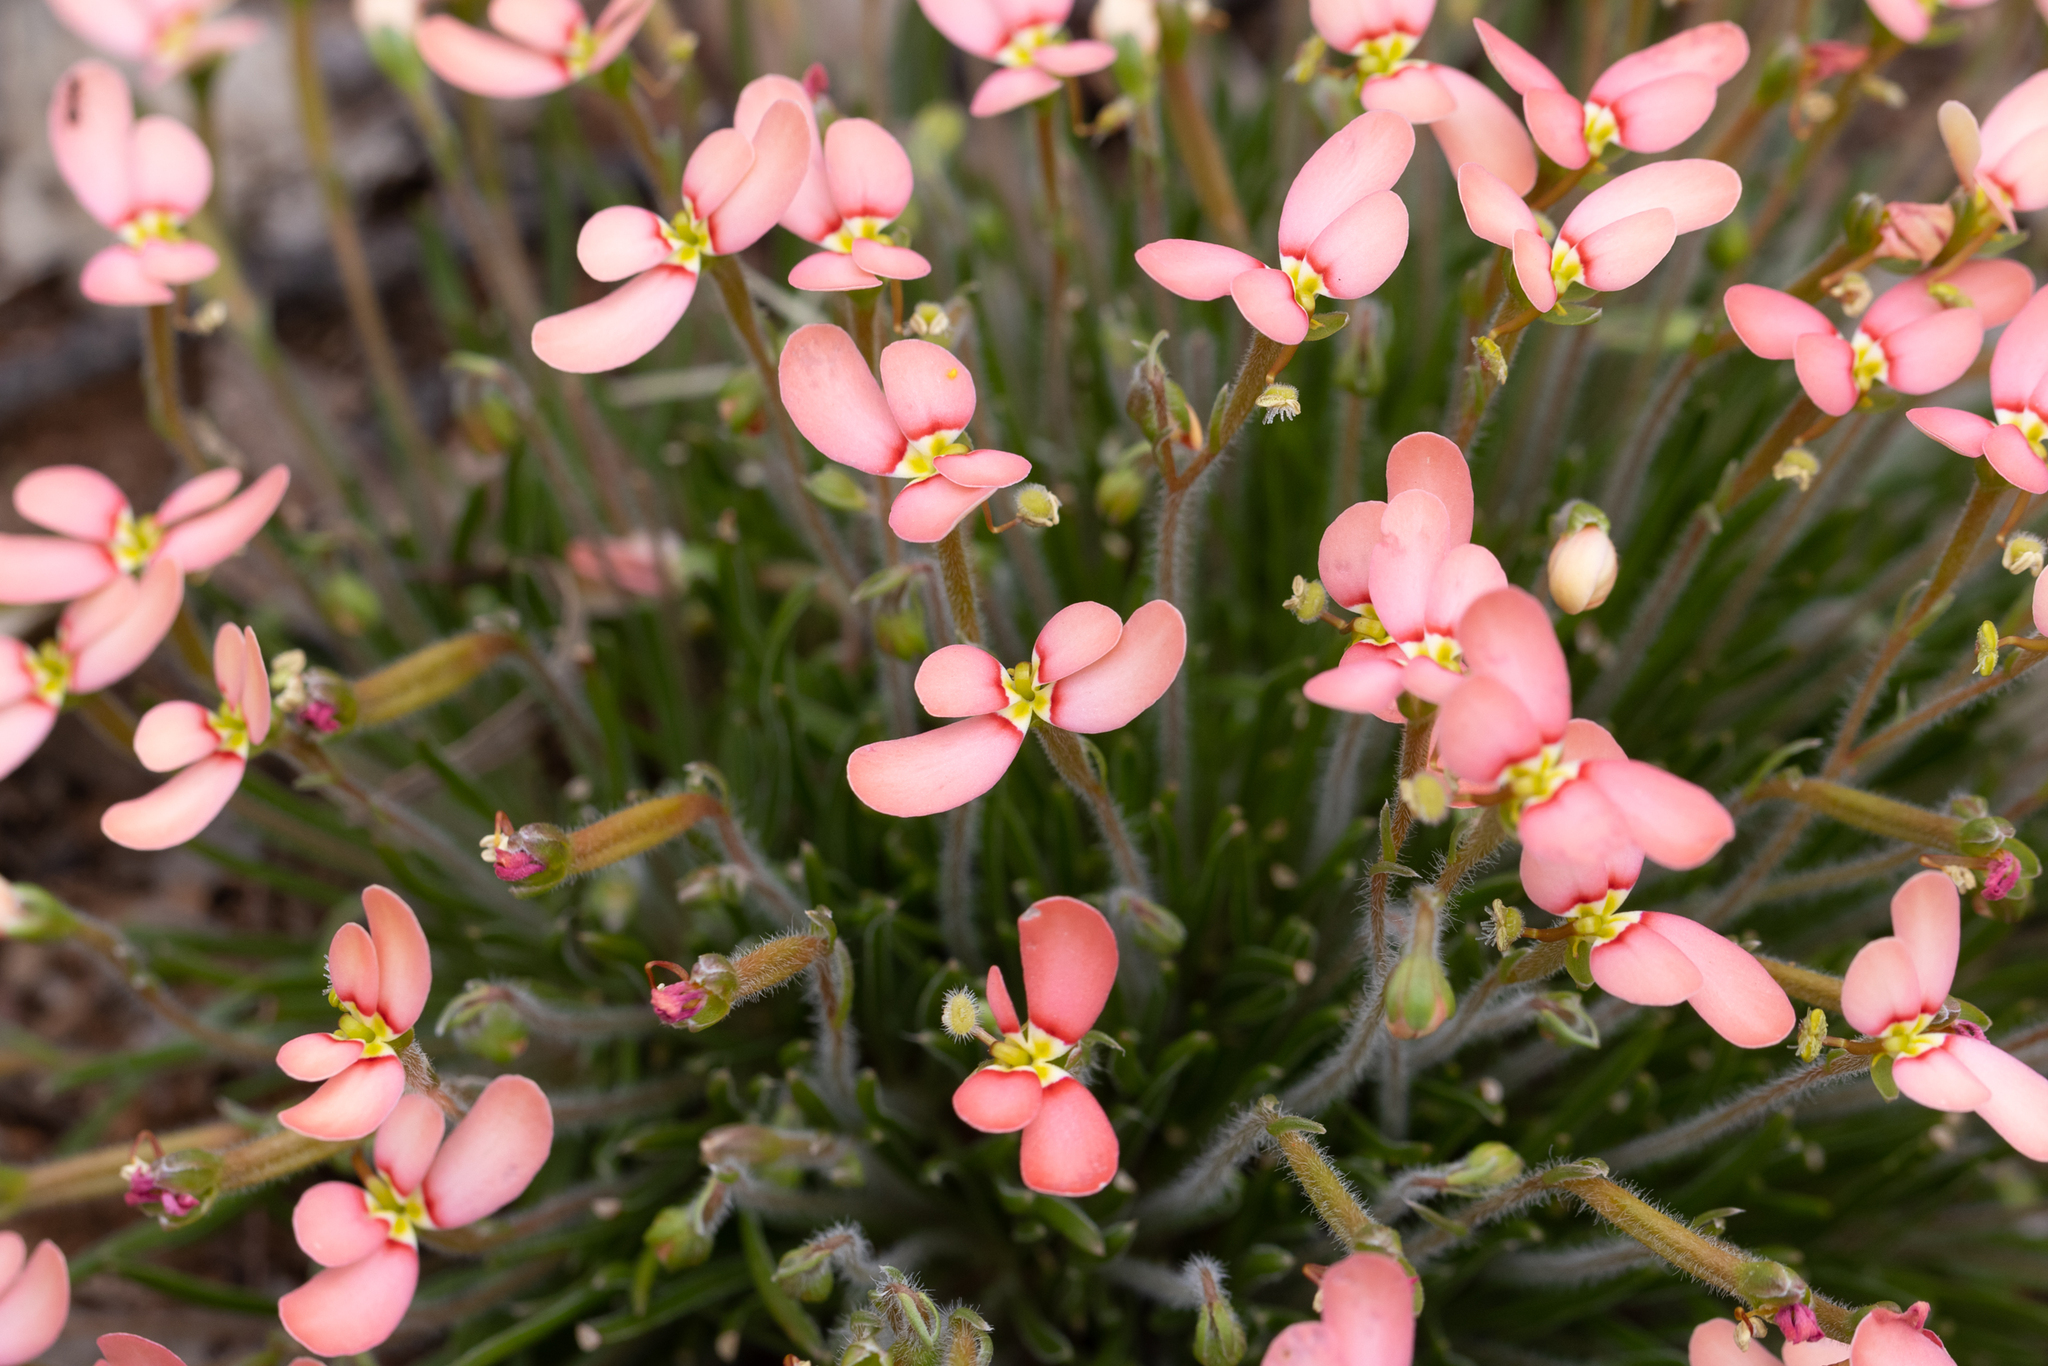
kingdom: Plantae
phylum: Tracheophyta
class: Magnoliopsida
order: Asterales
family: Stylidiaceae
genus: Stylidium
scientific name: Stylidium uniflorum
